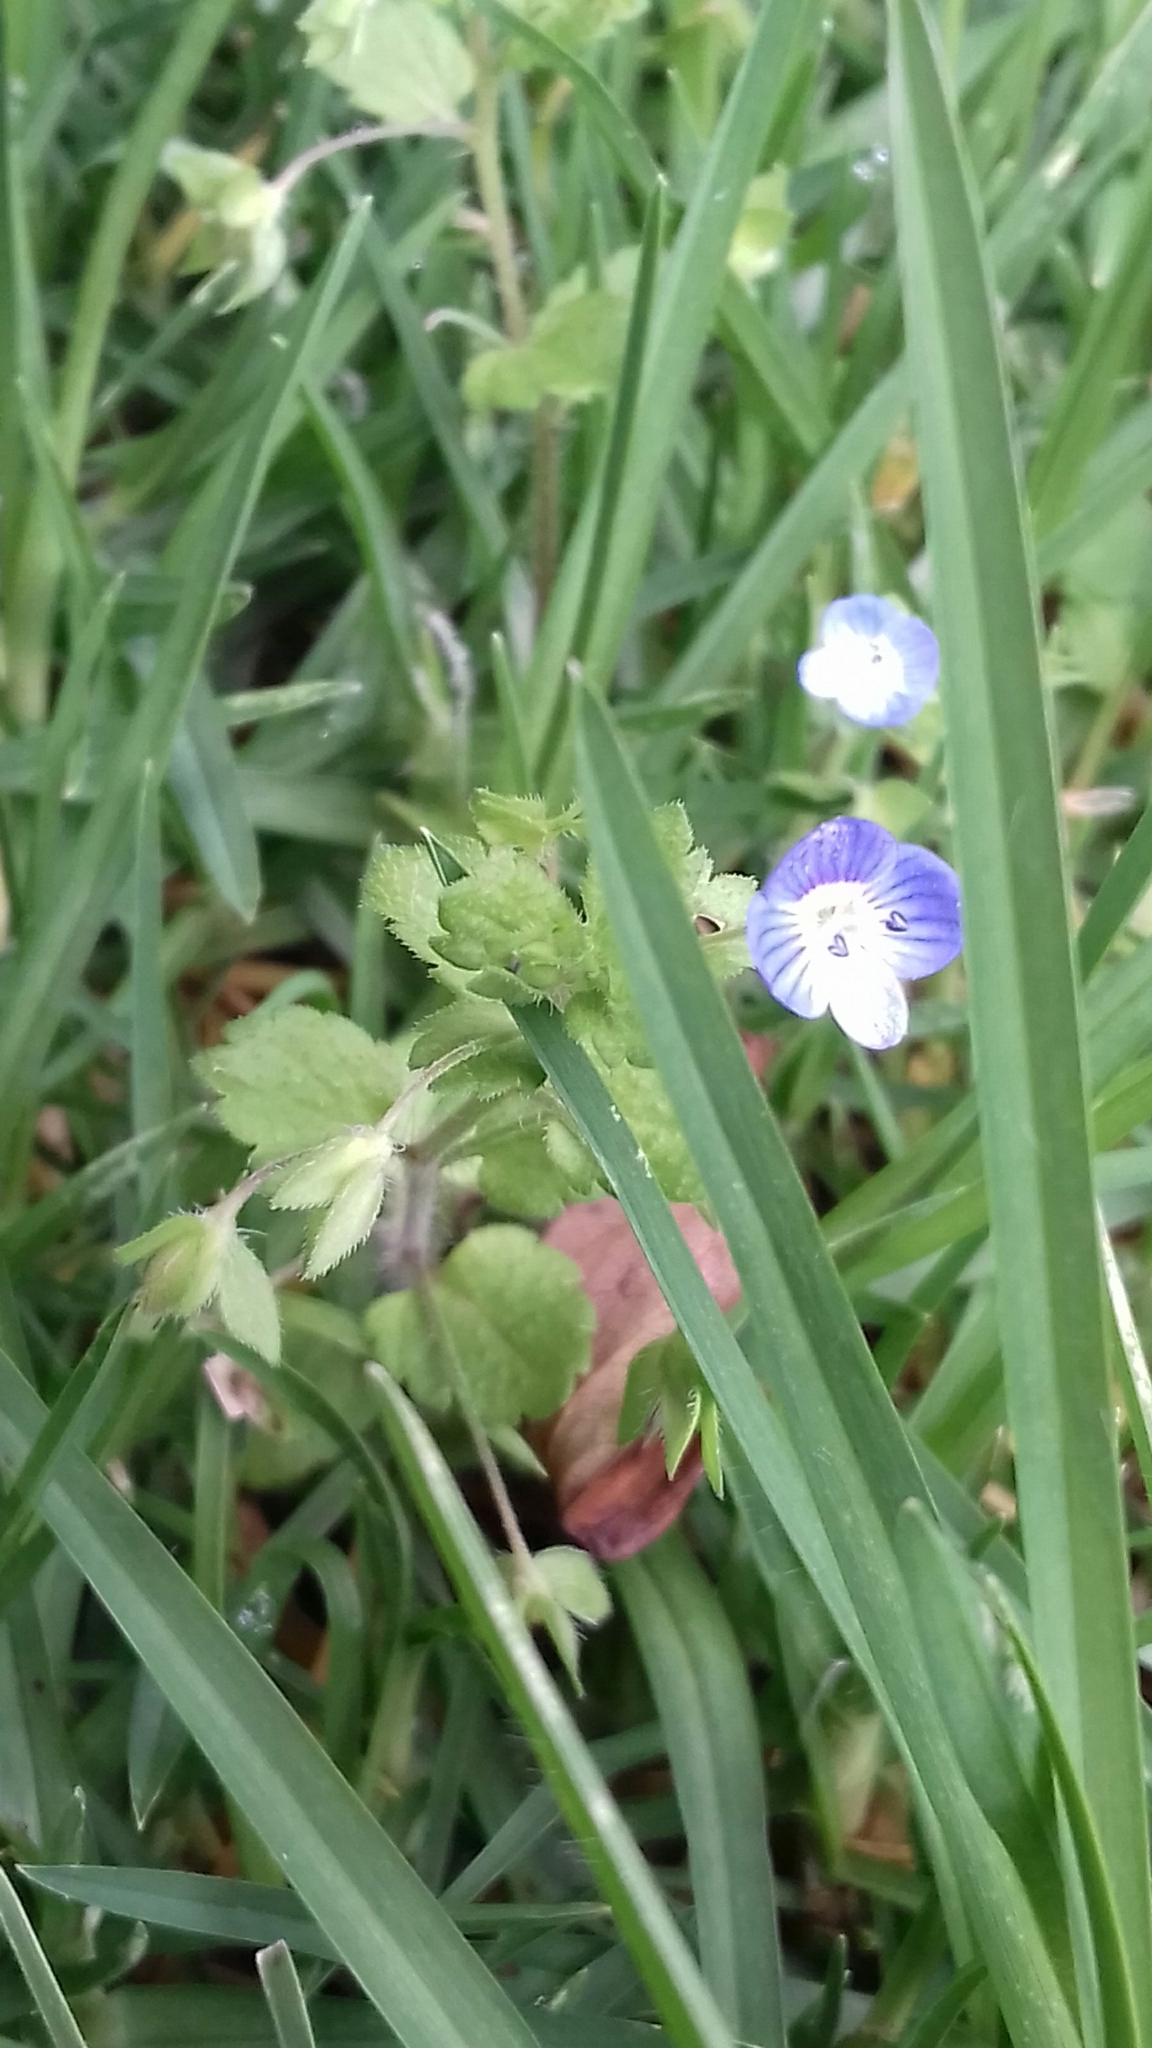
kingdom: Plantae
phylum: Tracheophyta
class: Magnoliopsida
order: Lamiales
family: Plantaginaceae
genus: Veronica
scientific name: Veronica persica
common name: Common field-speedwell
